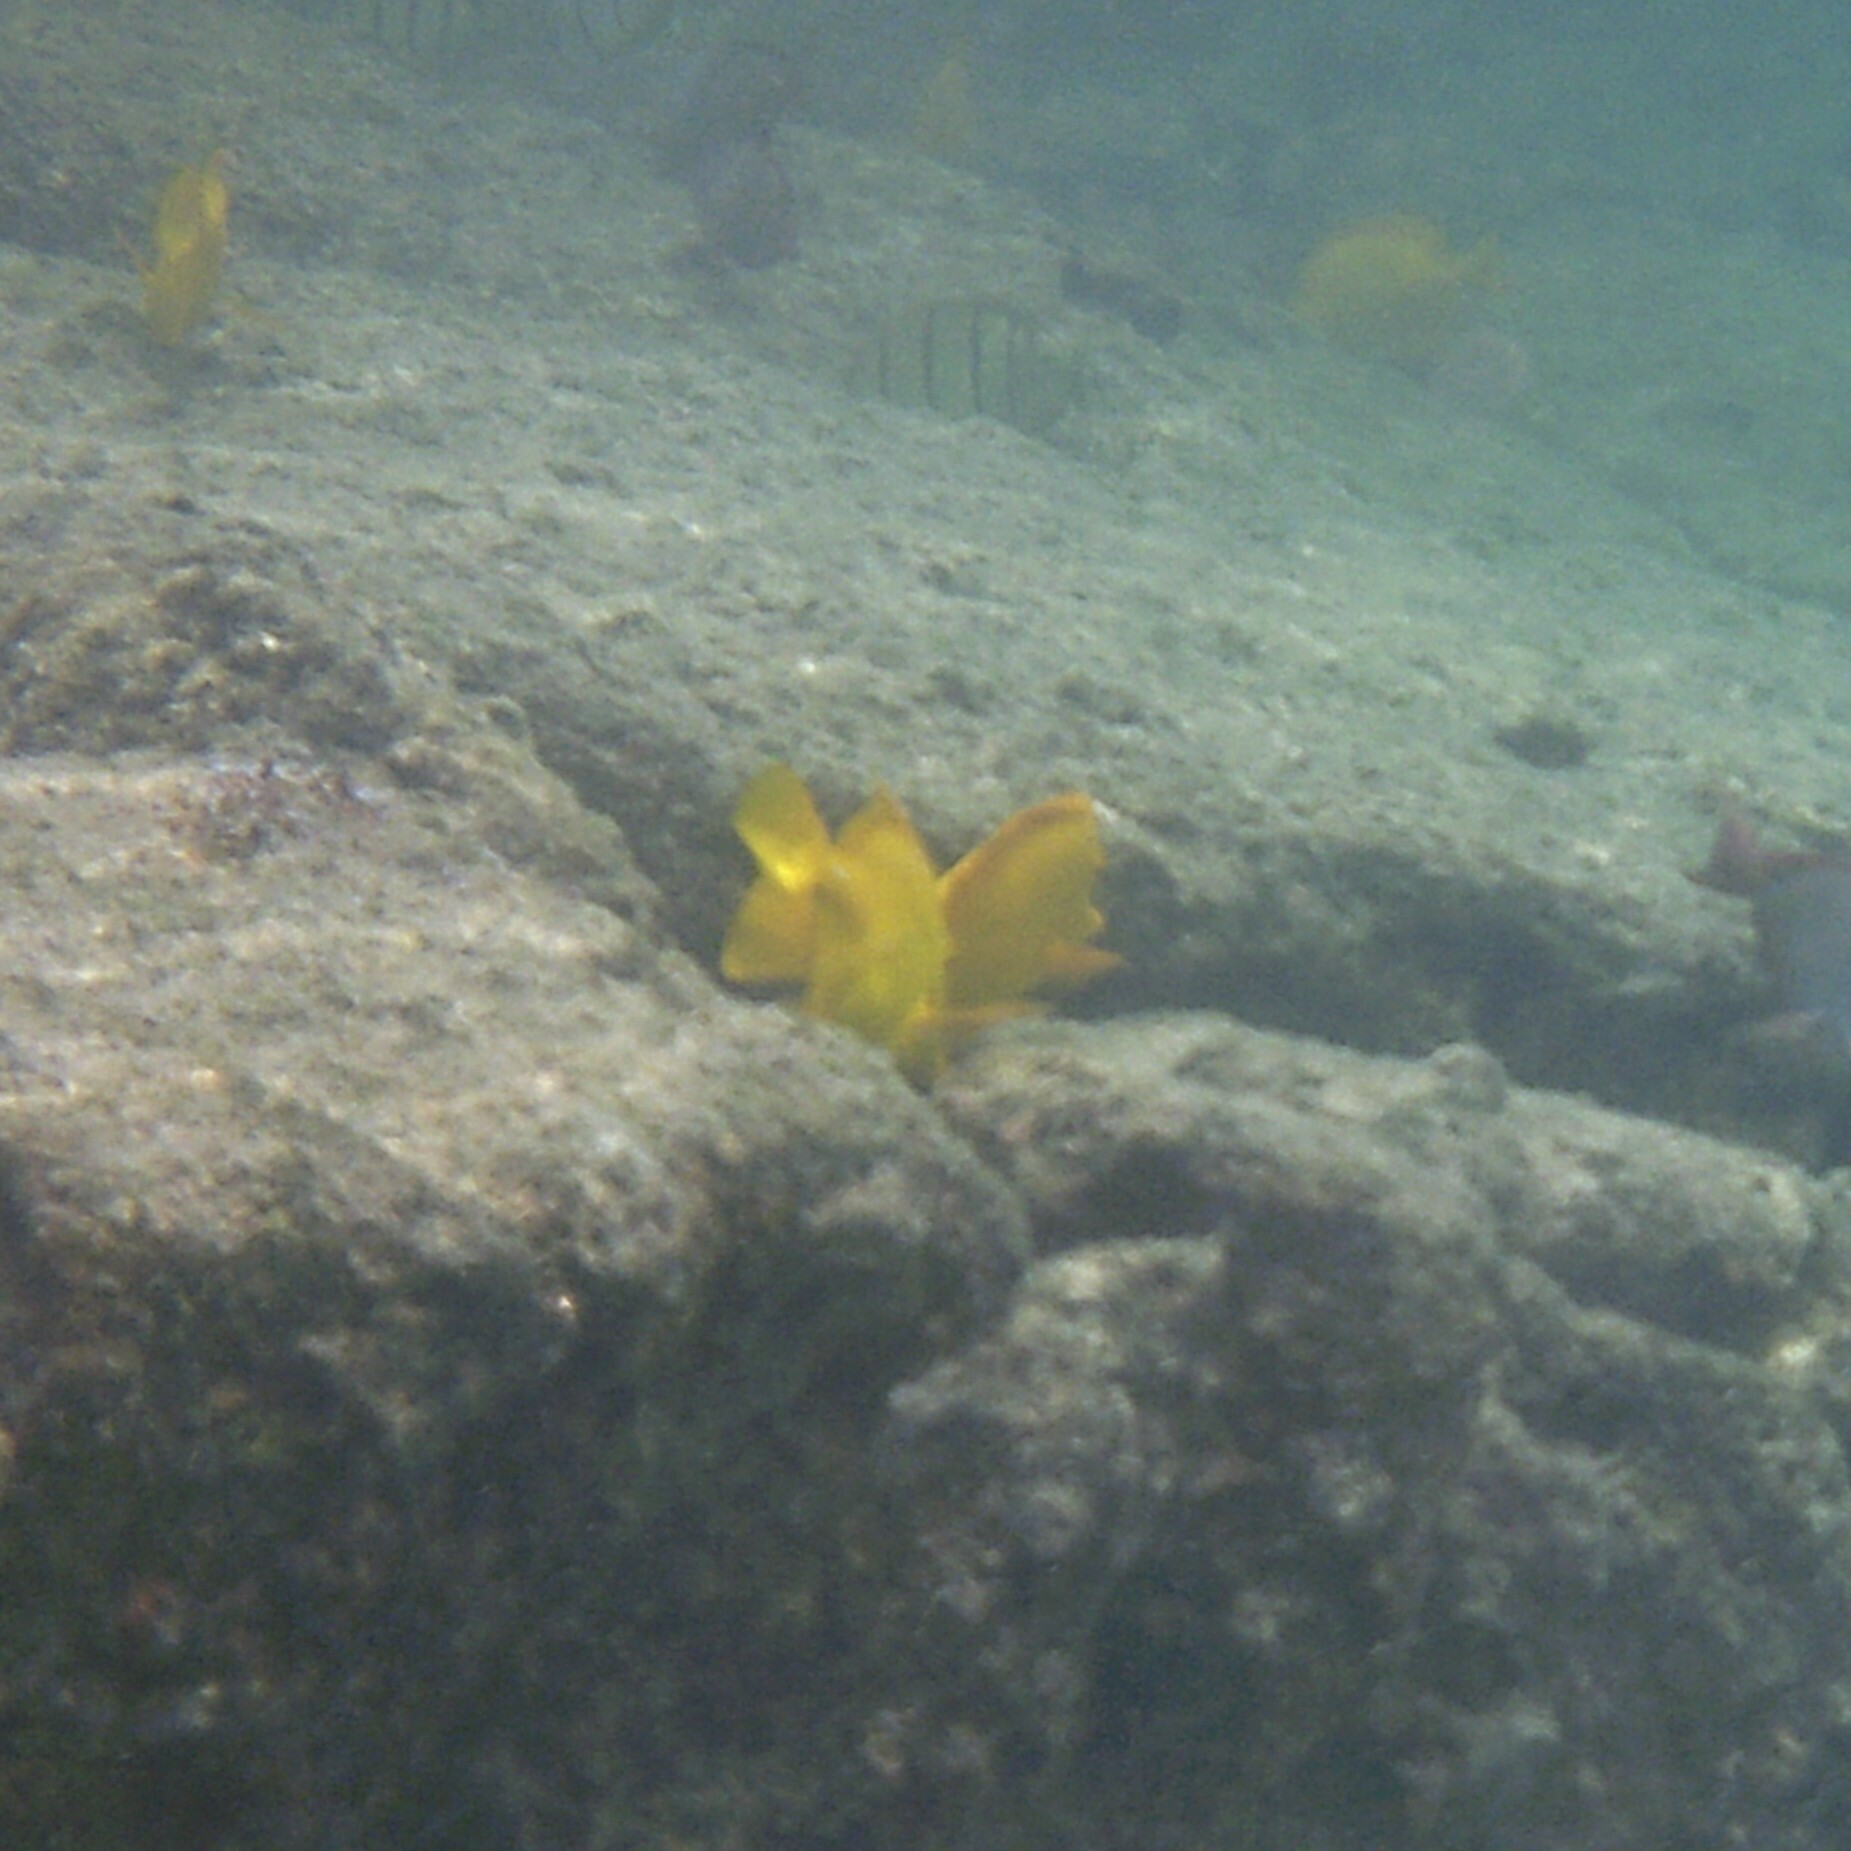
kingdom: Animalia
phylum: Chordata
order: Perciformes
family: Acanthuridae
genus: Zebrasoma
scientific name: Zebrasoma flavescens
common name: Yellow tang
